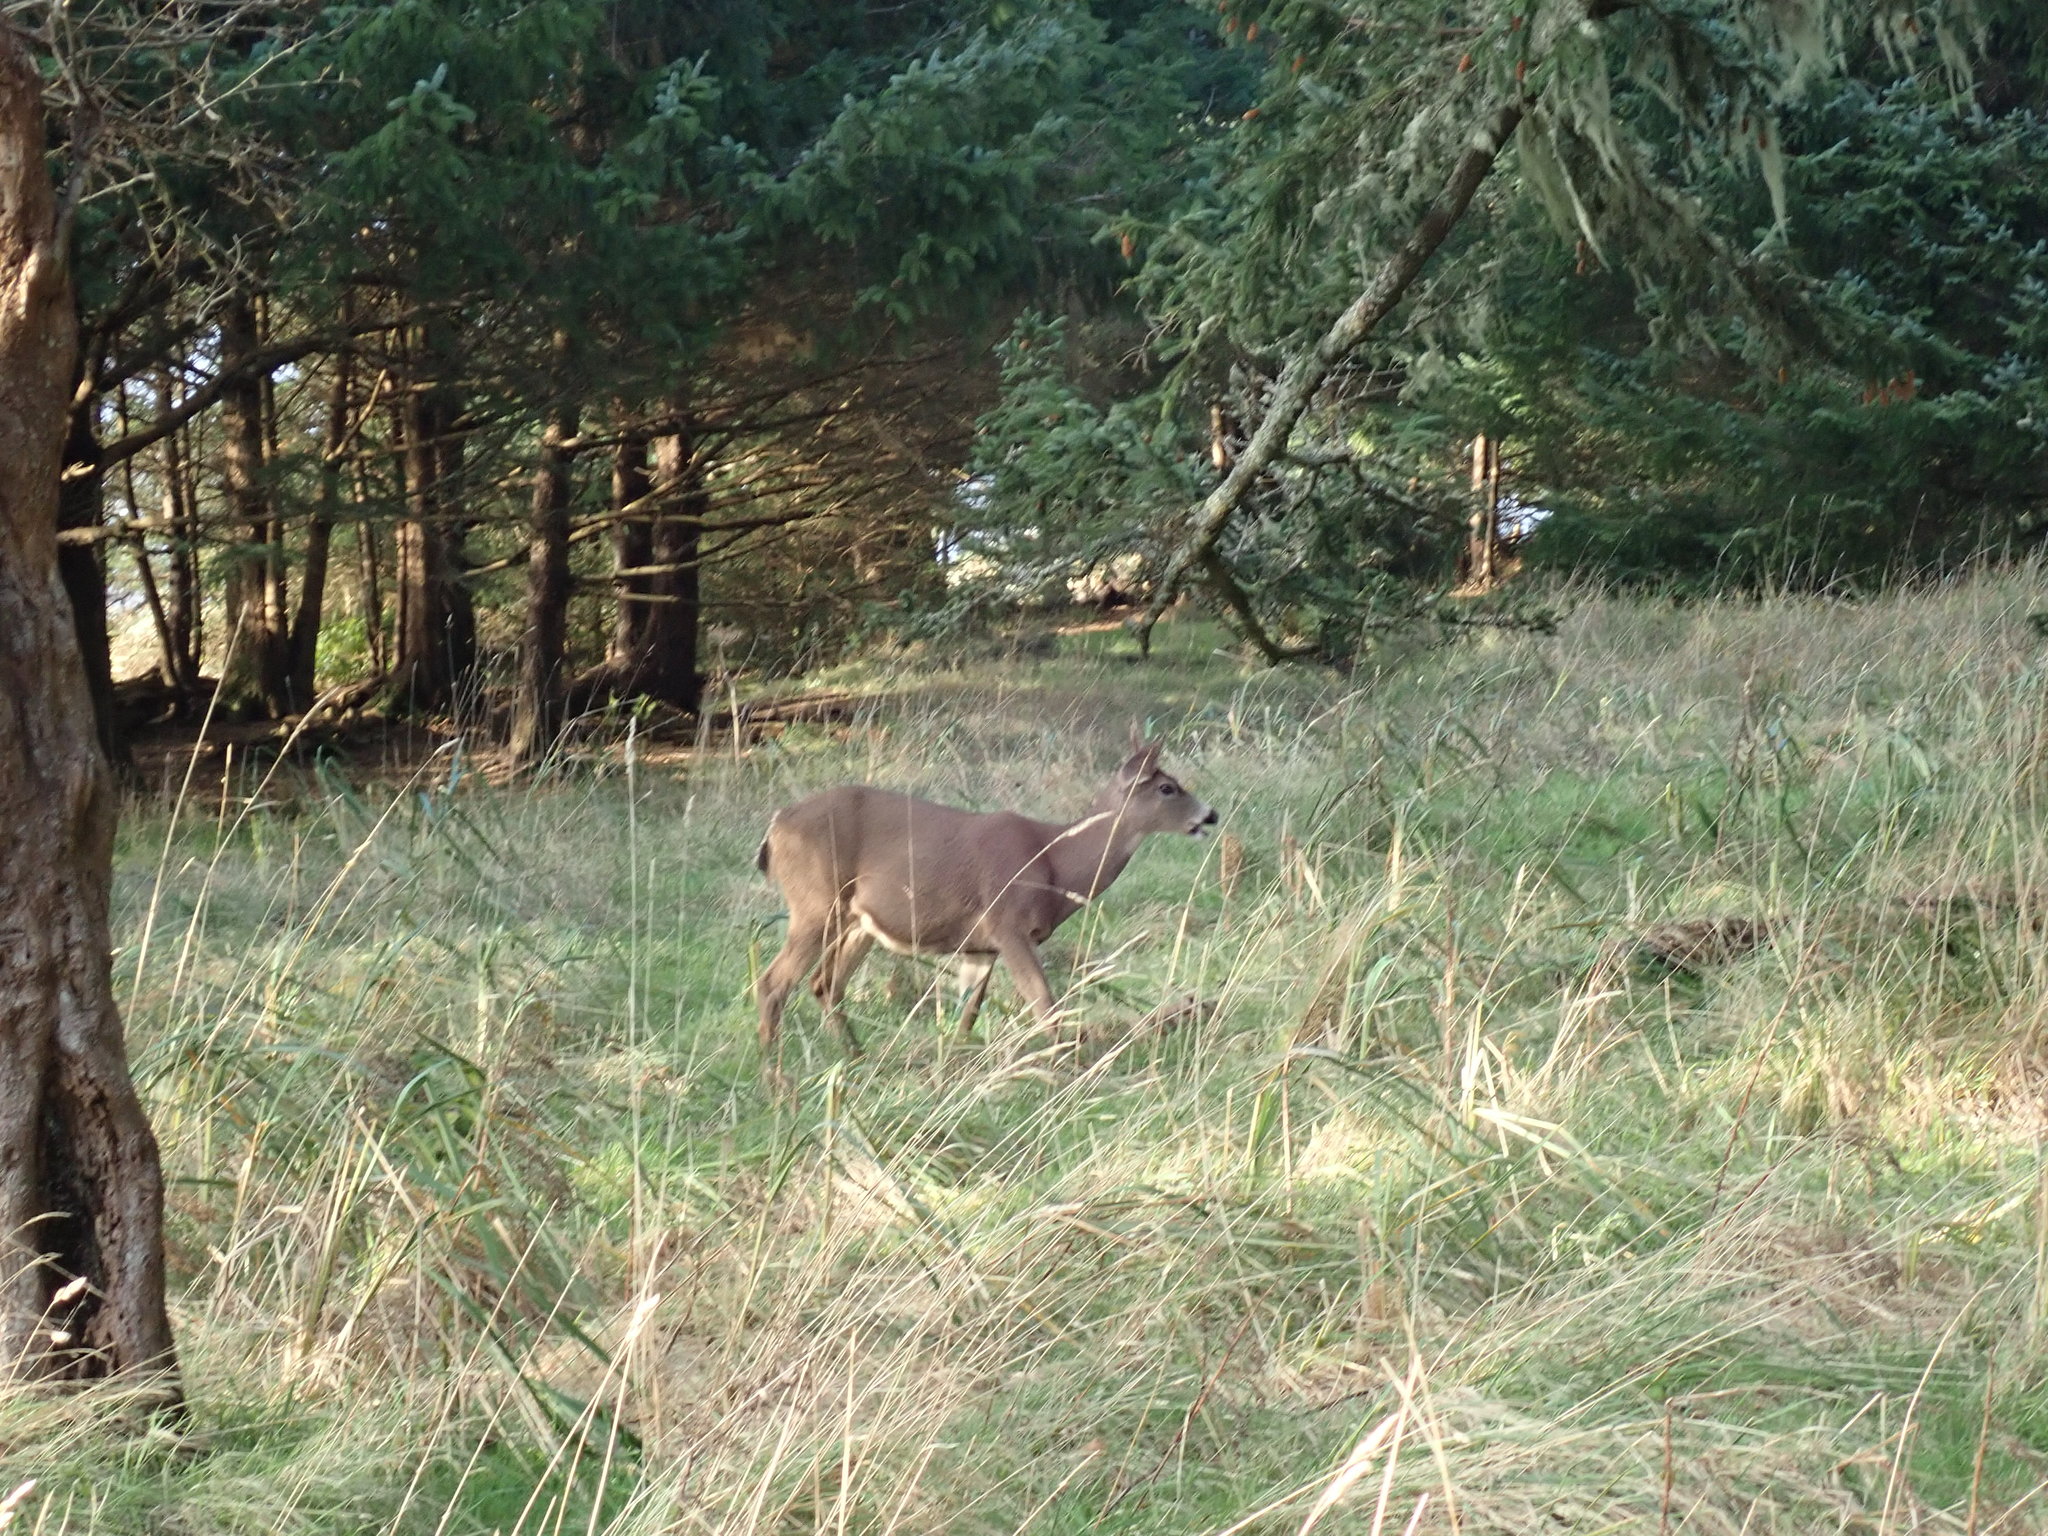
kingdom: Animalia
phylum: Chordata
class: Mammalia
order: Artiodactyla
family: Cervidae
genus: Odocoileus
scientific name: Odocoileus hemionus
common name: Mule deer
